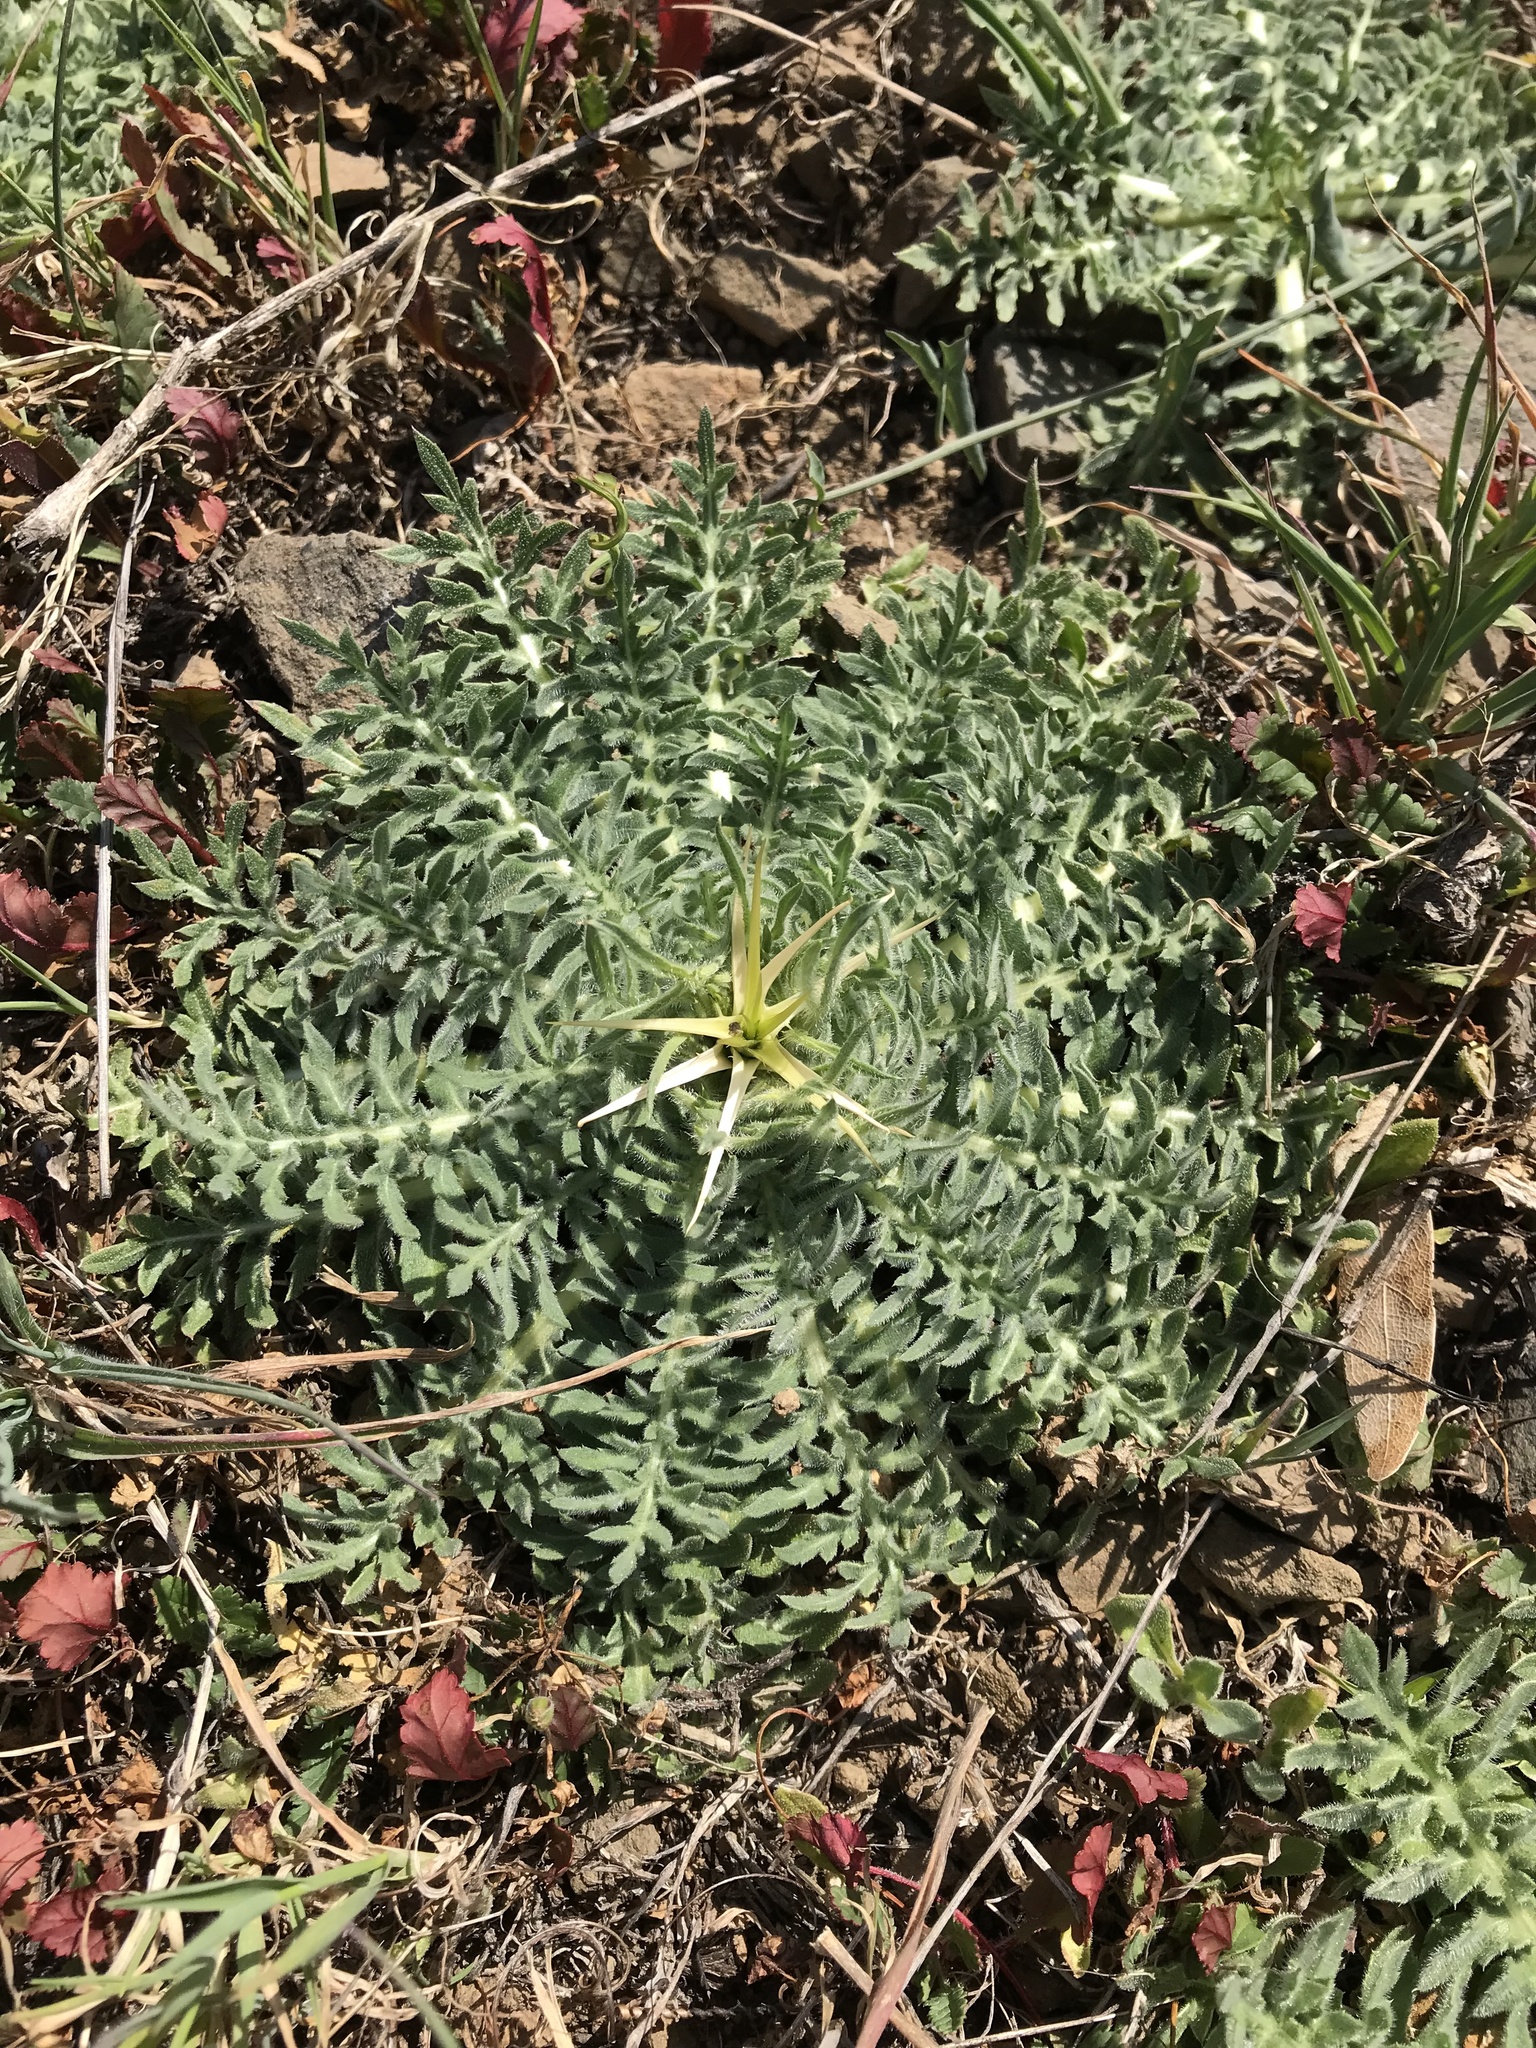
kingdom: Plantae
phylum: Tracheophyta
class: Magnoliopsida
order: Asterales
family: Asteraceae
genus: Centaurea
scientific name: Centaurea calcitrapa
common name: Red star-thistle
